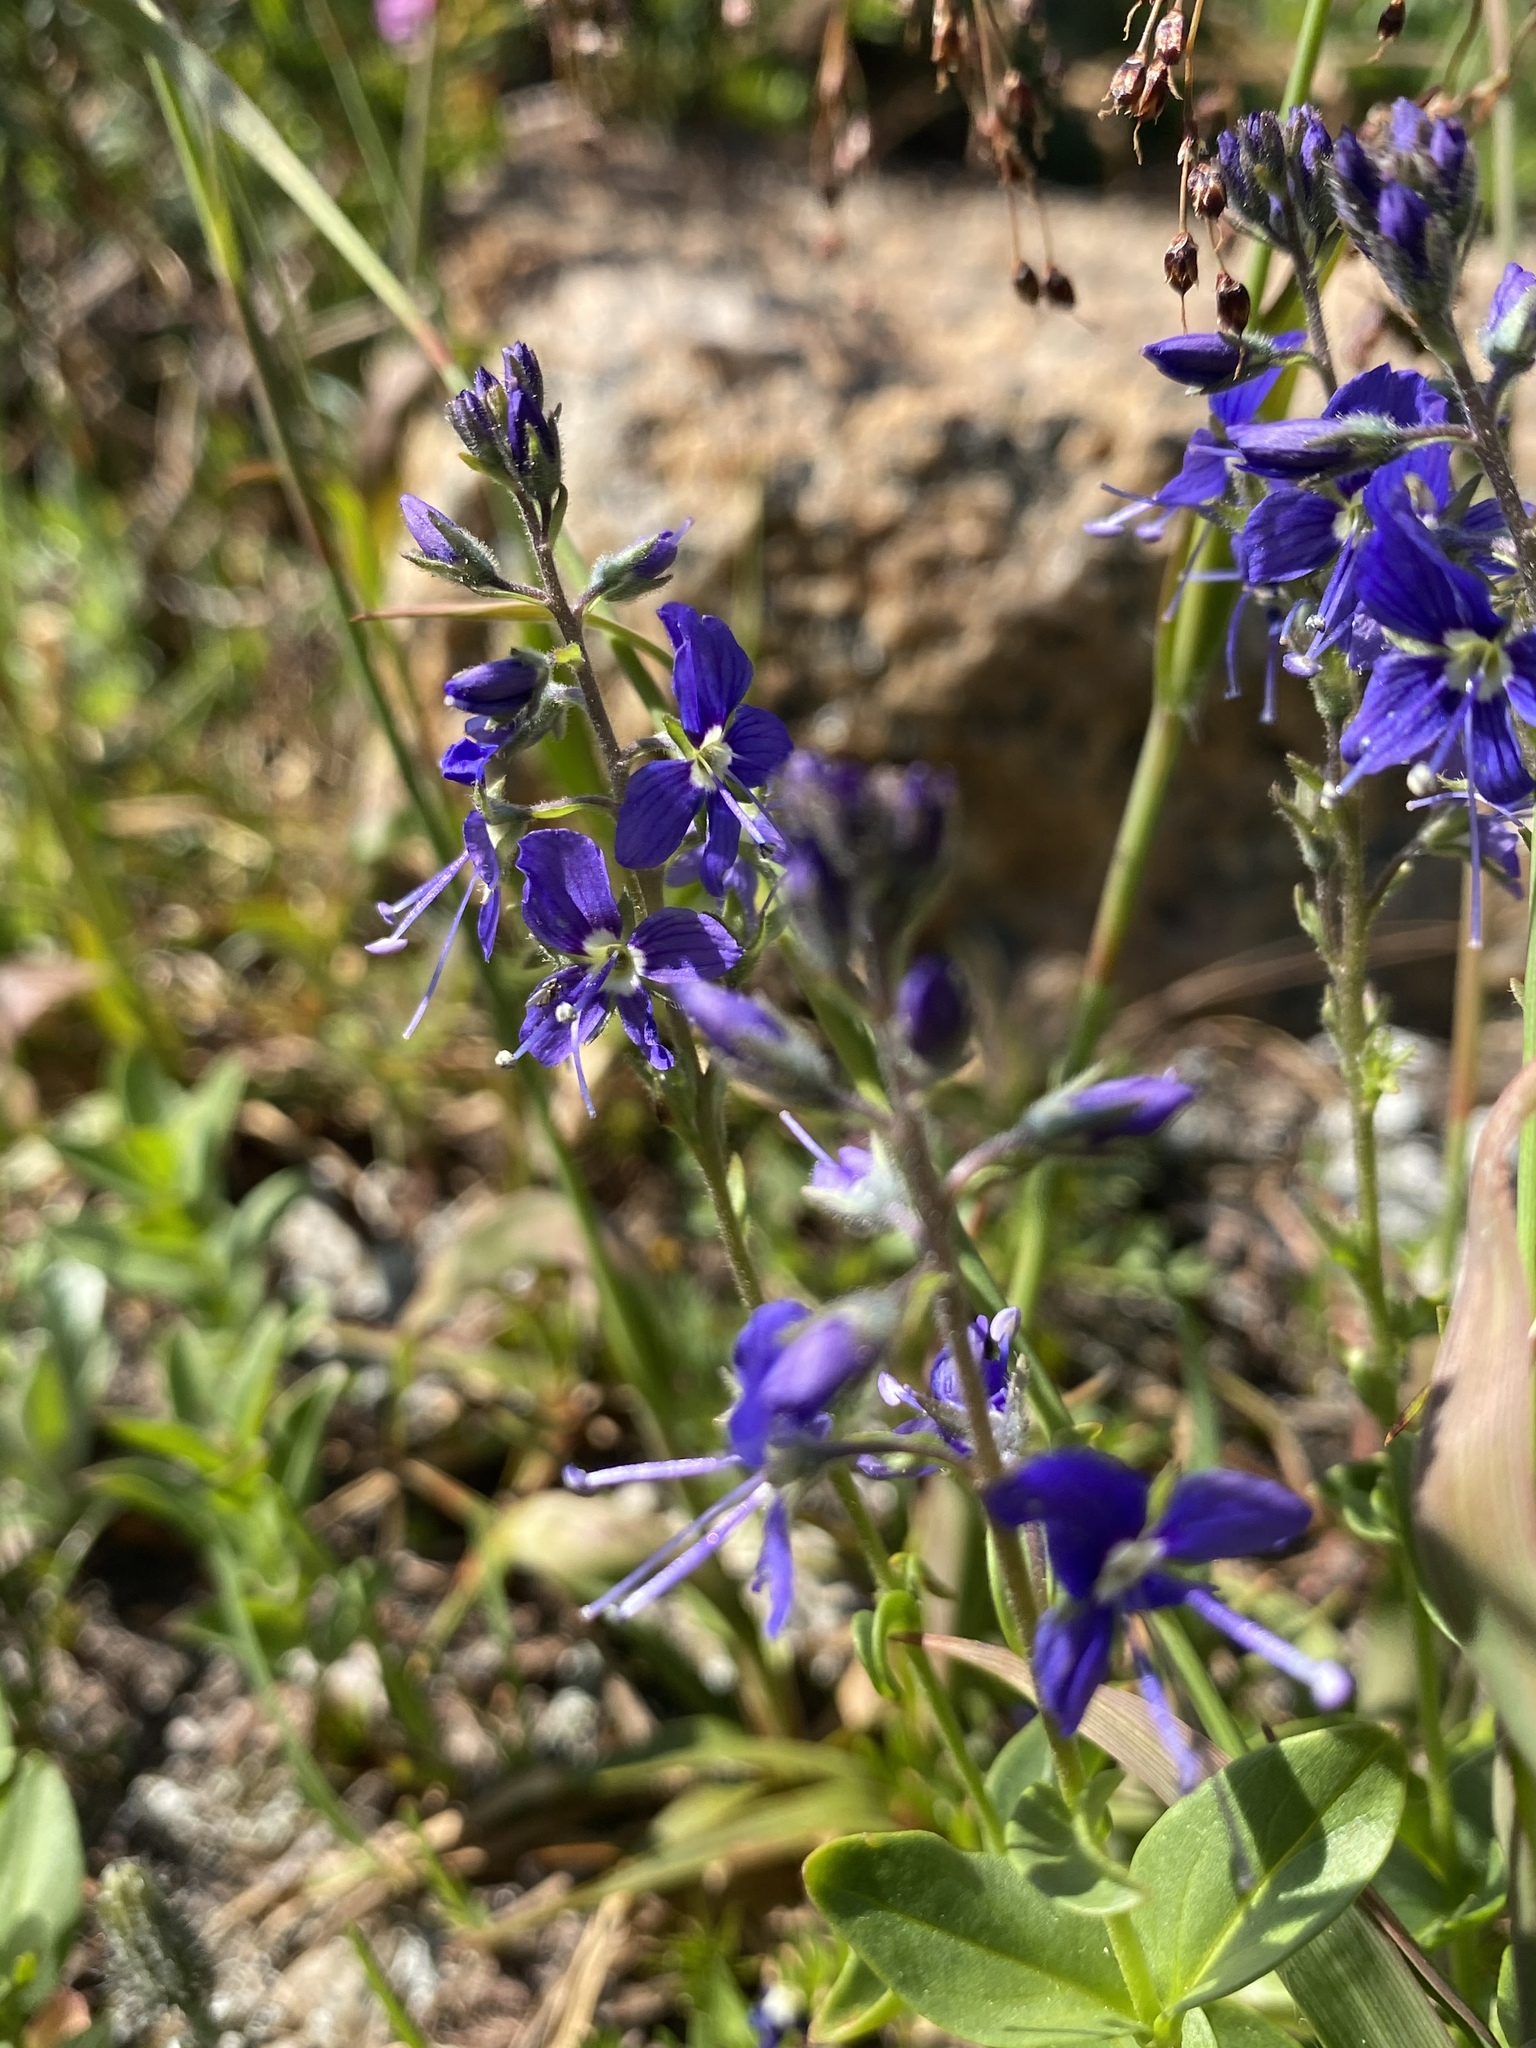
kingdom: Plantae
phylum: Tracheophyta
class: Magnoliopsida
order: Lamiales
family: Plantaginaceae
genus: Veronica
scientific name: Veronica cusickii
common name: Cusick's speedwell
